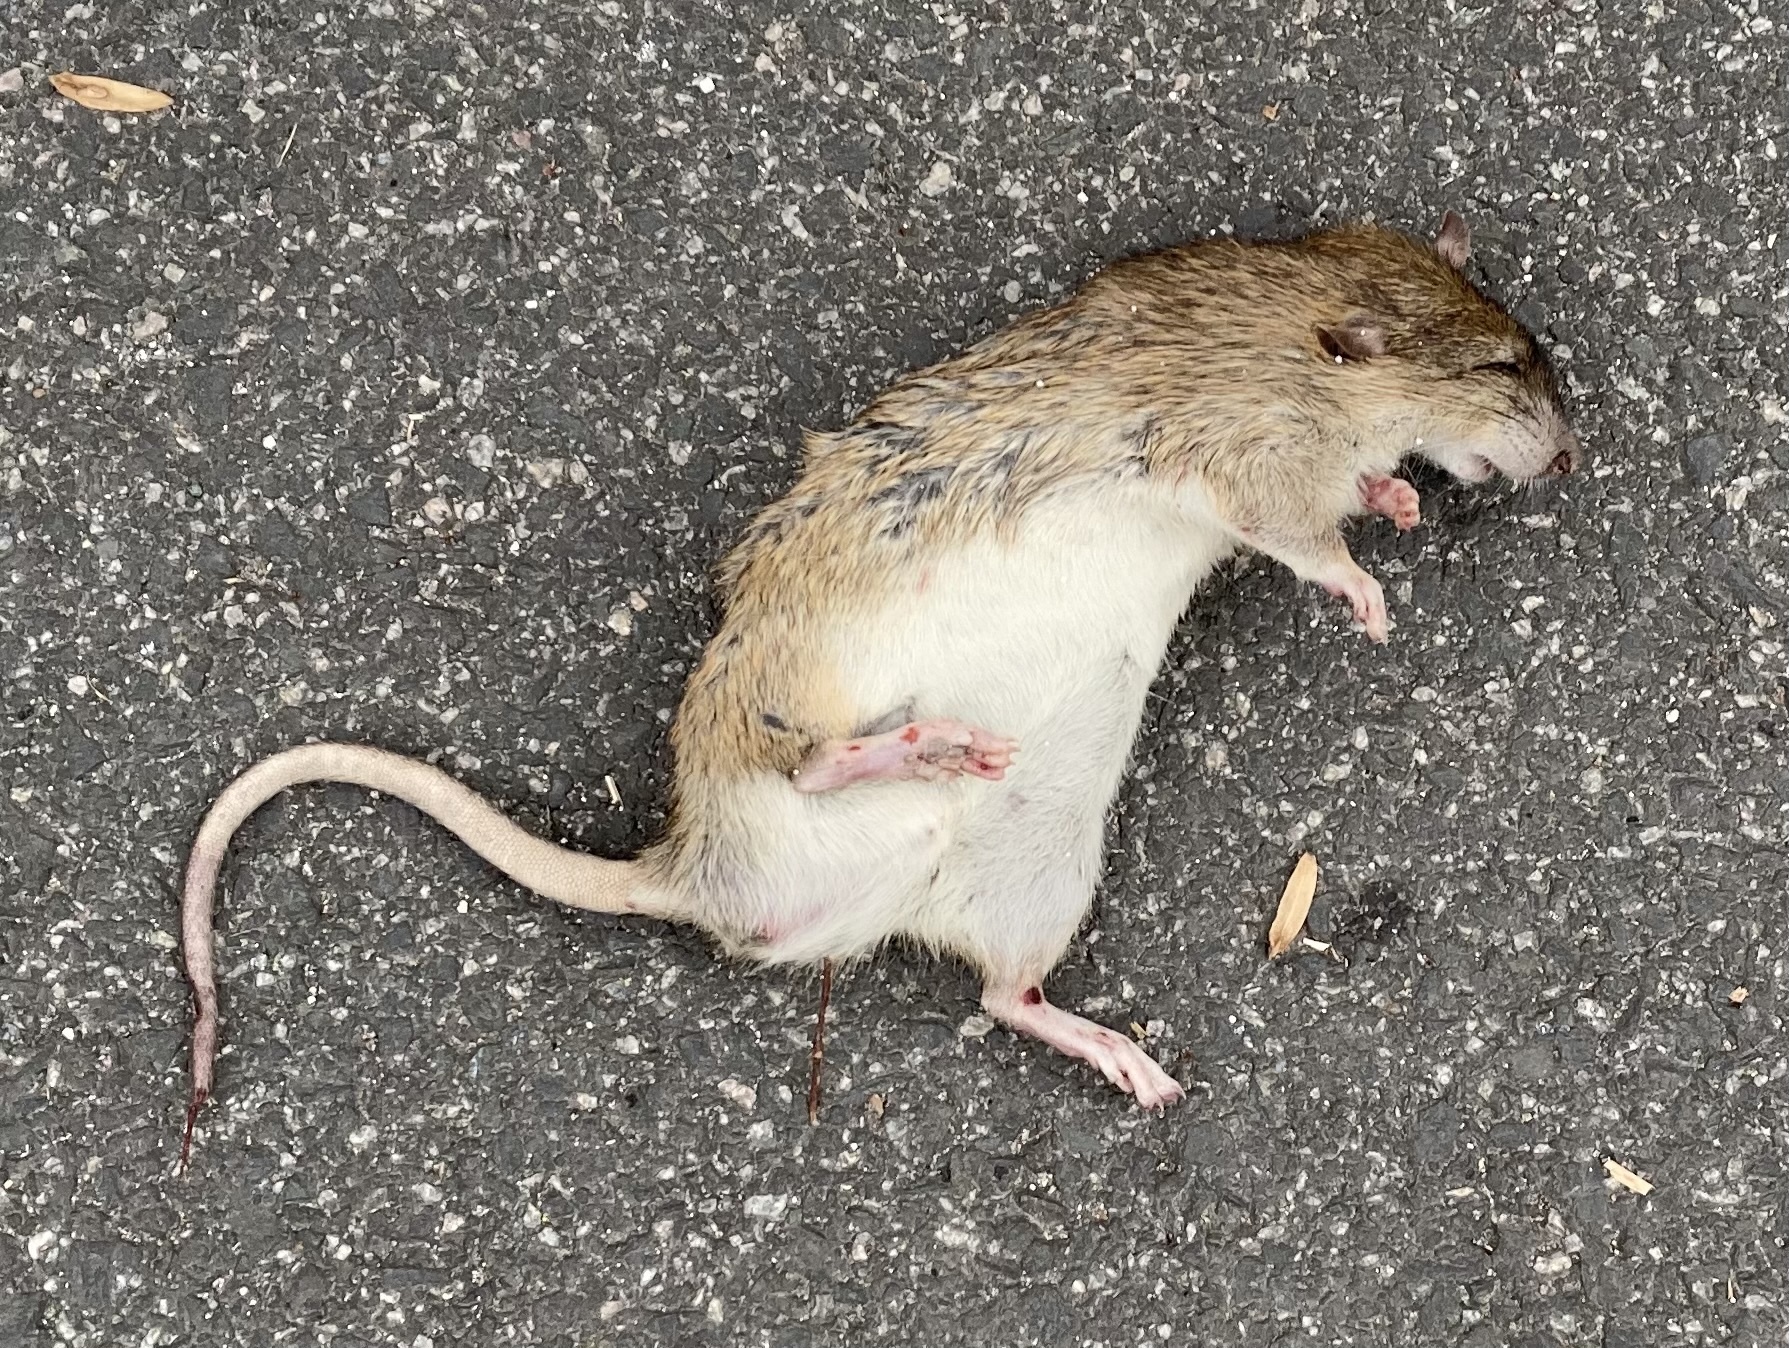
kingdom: Animalia
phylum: Chordata
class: Mammalia
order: Rodentia
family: Muridae
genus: Rattus
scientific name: Rattus norvegicus
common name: Brown rat
